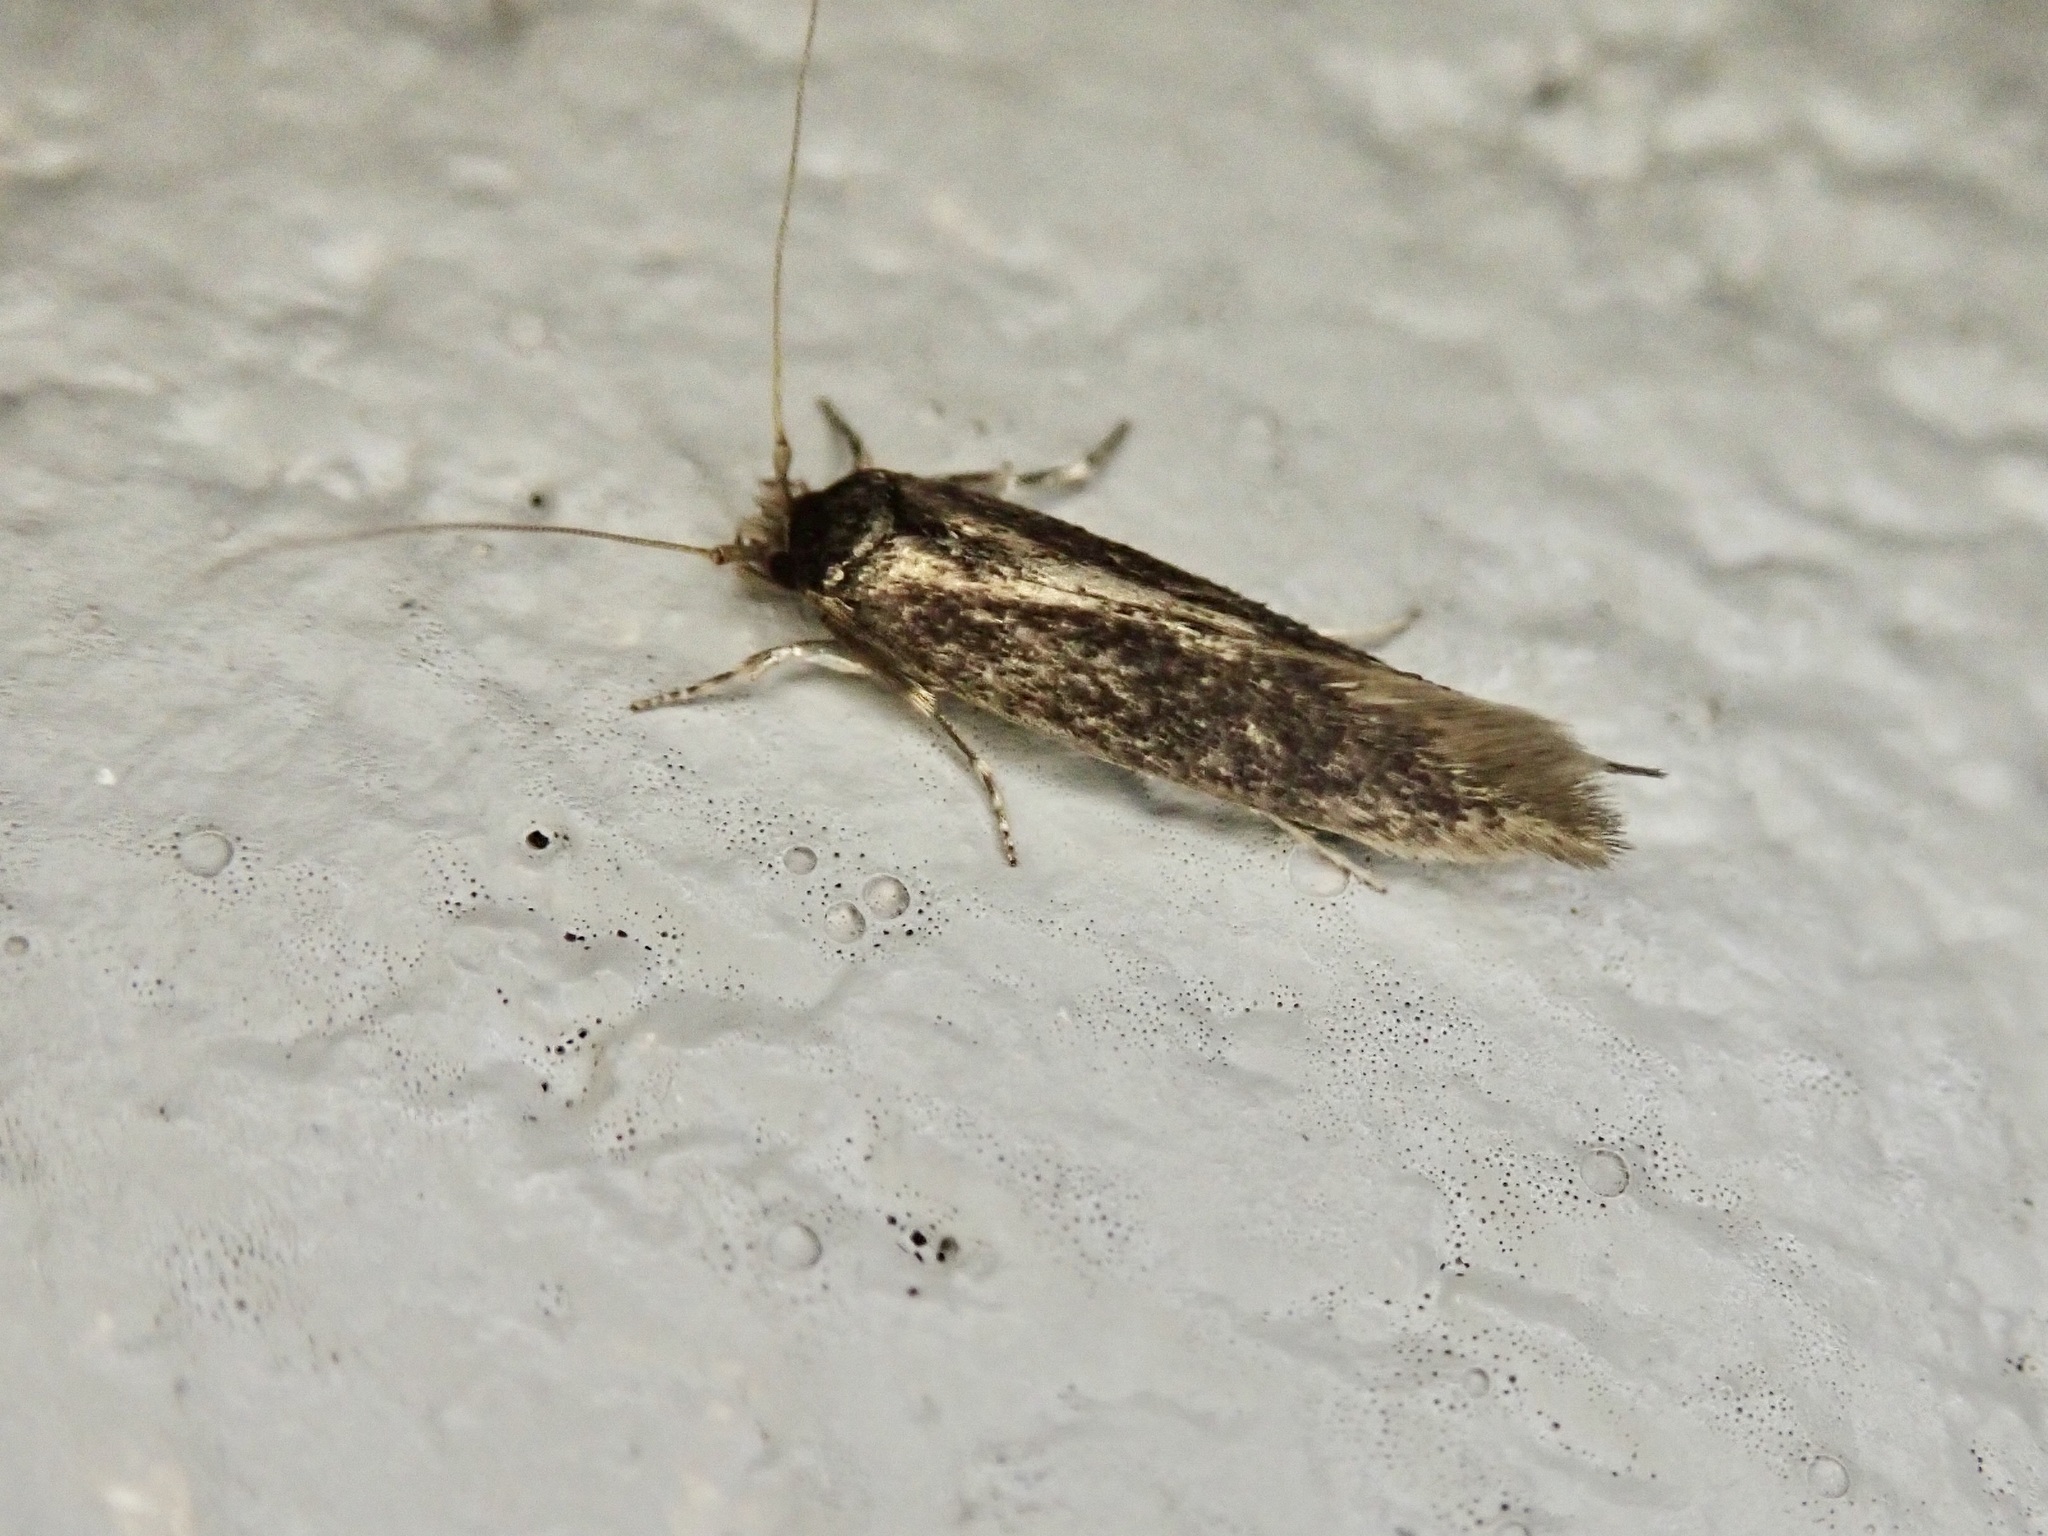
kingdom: Animalia
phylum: Arthropoda
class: Insecta
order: Lepidoptera
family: Tineidae
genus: Opogona
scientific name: Opogona omoscopa
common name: Moth
